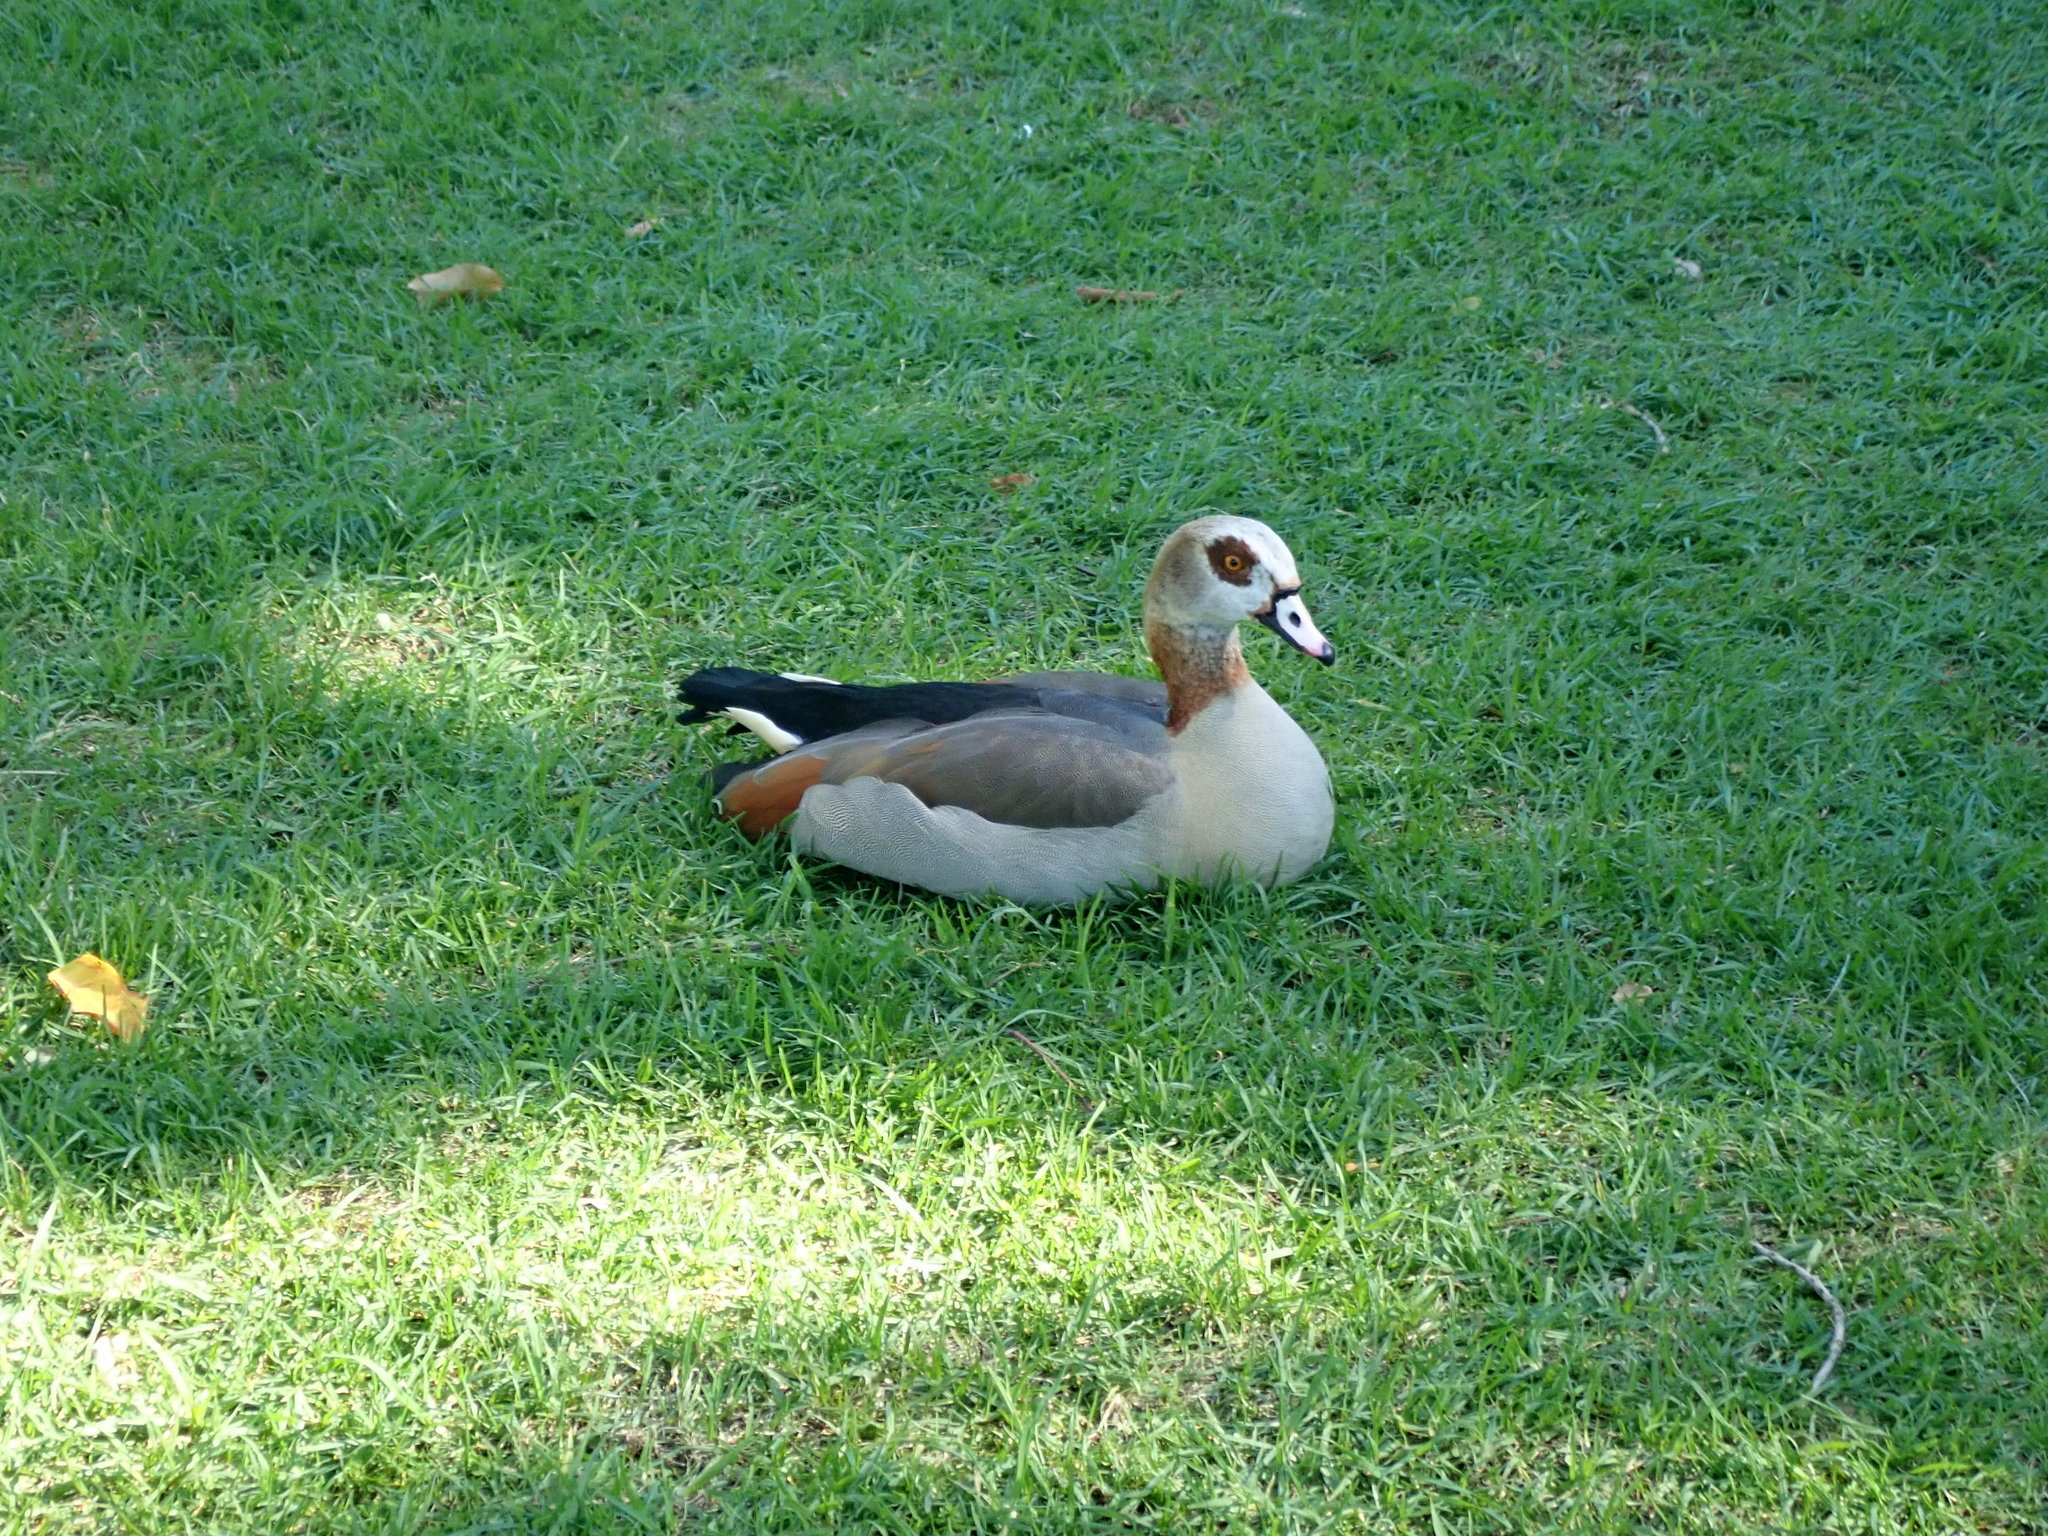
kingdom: Animalia
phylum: Chordata
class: Aves
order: Anseriformes
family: Anatidae
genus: Alopochen
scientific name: Alopochen aegyptiaca
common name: Egyptian goose
